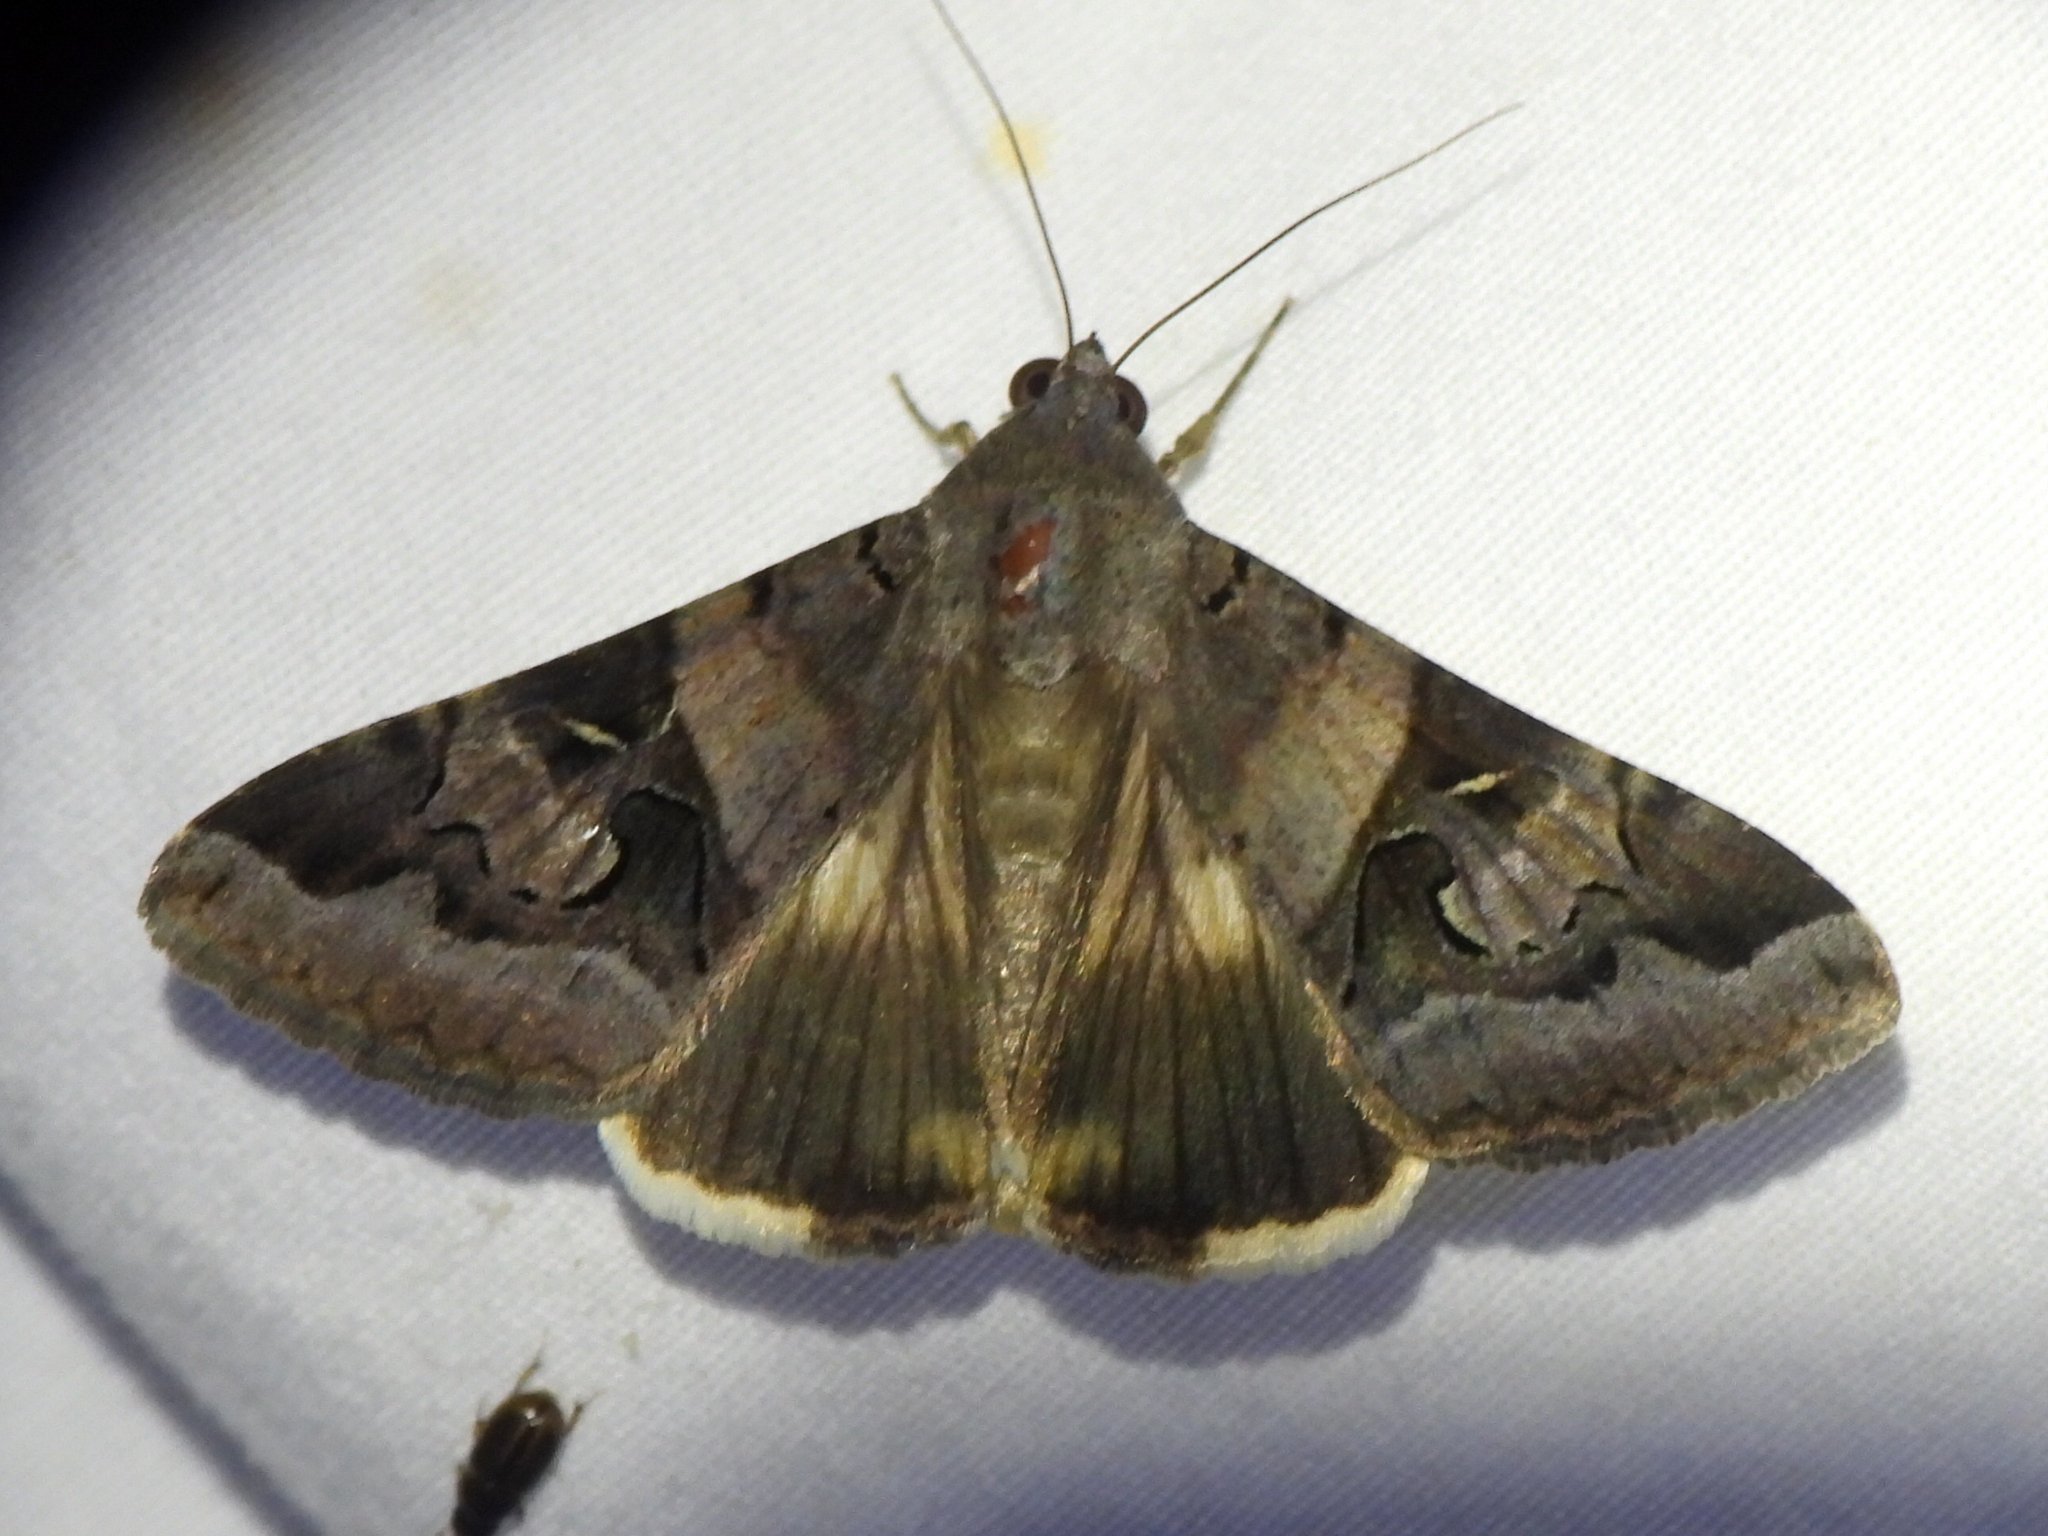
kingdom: Animalia
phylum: Arthropoda
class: Insecta
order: Lepidoptera
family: Erebidae
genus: Melipotis
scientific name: Melipotis indomita
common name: Moth
